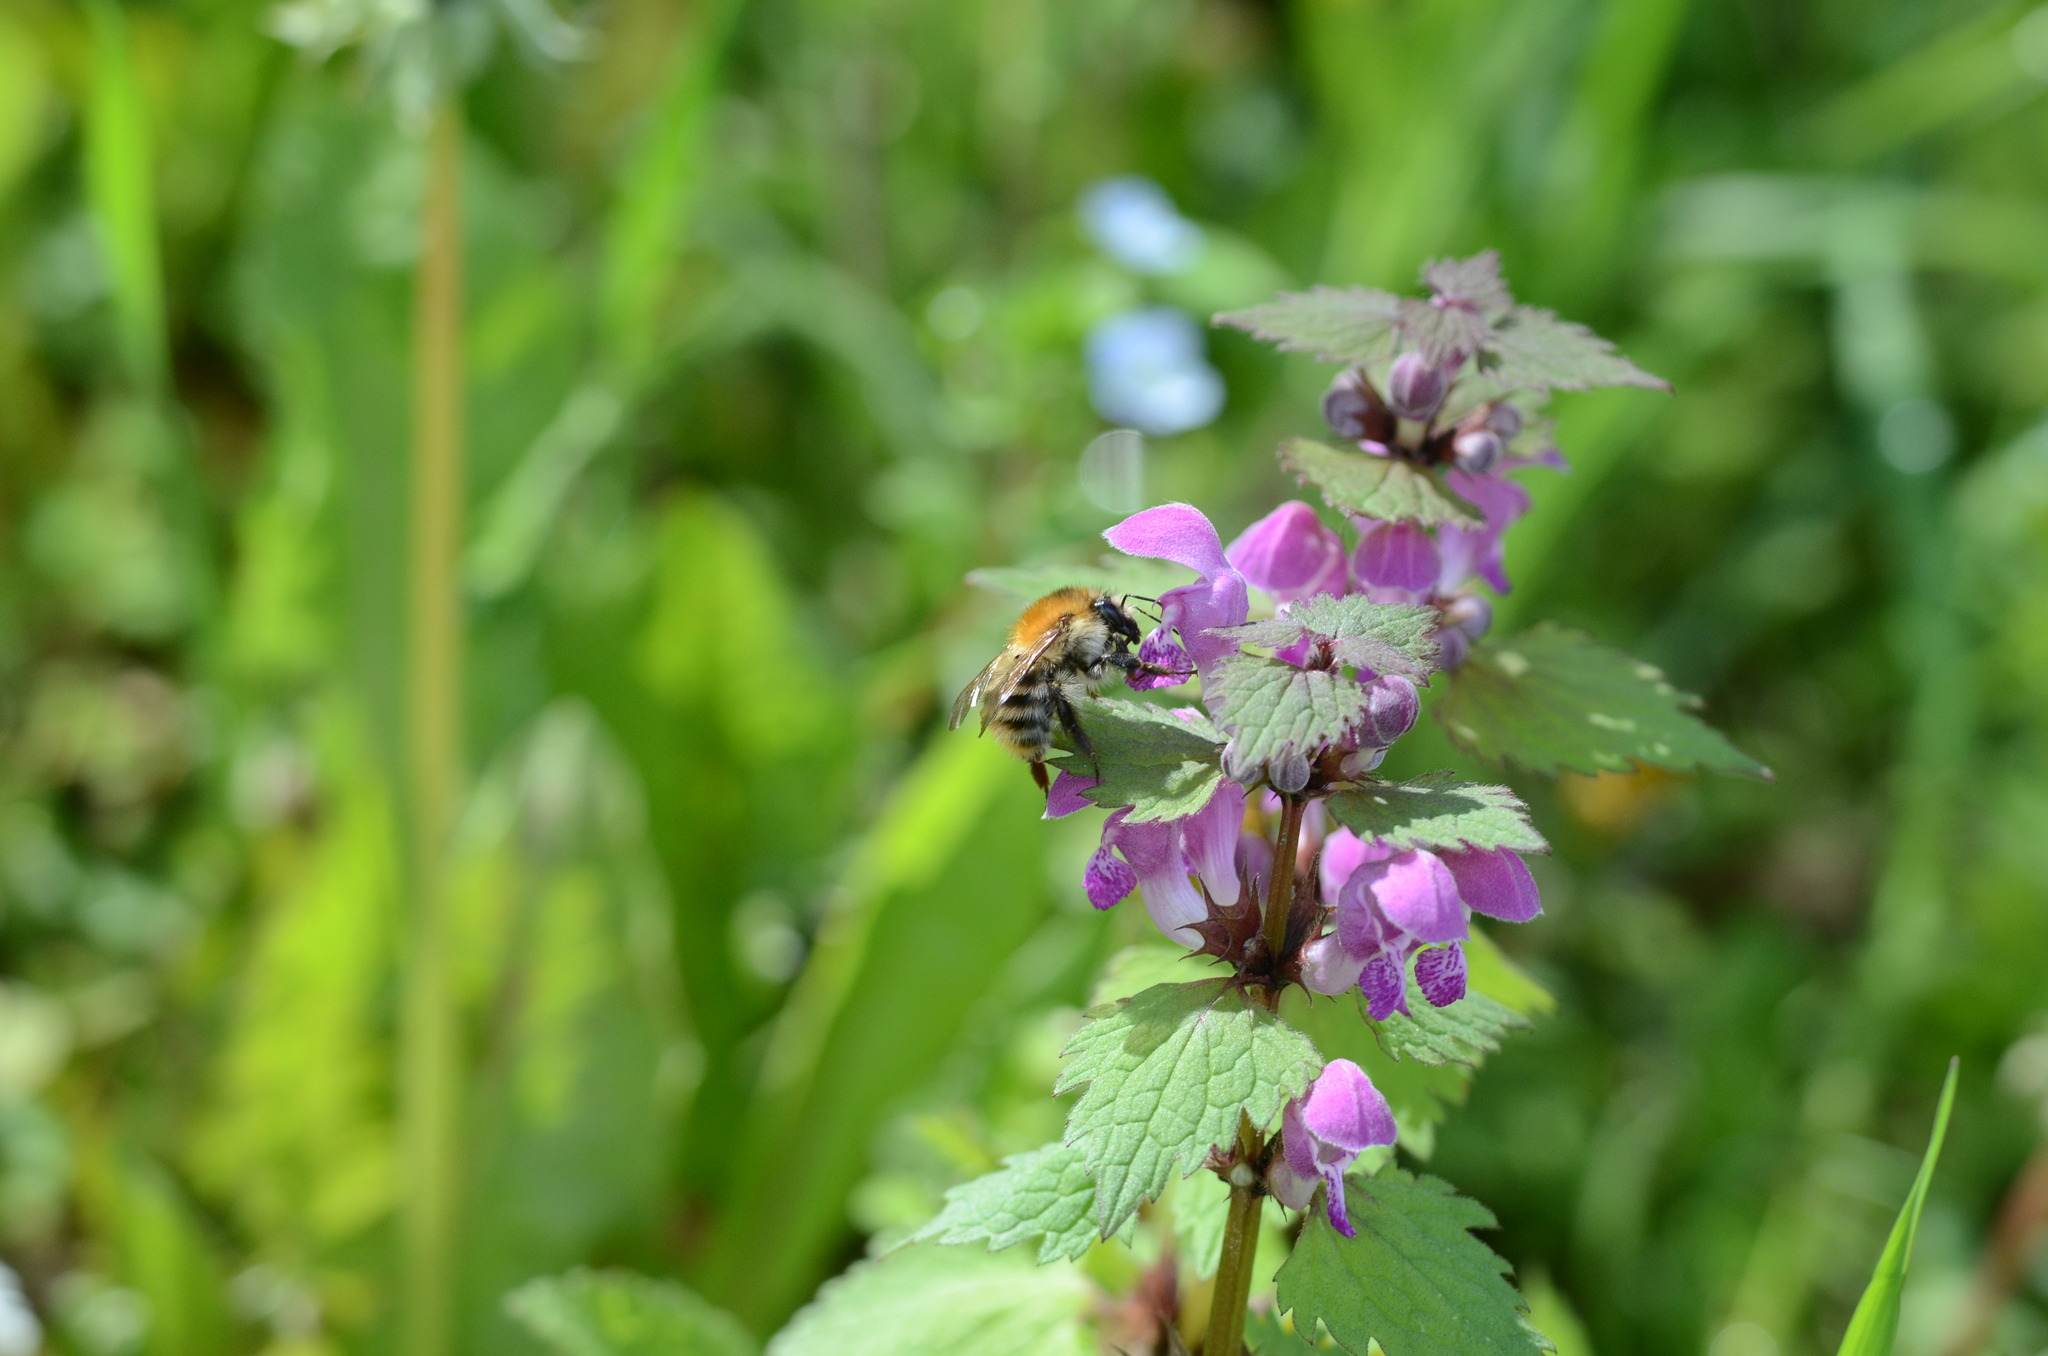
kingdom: Animalia
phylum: Arthropoda
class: Insecta
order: Hymenoptera
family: Apidae
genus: Bombus
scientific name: Bombus pascuorum
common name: Common carder bee
